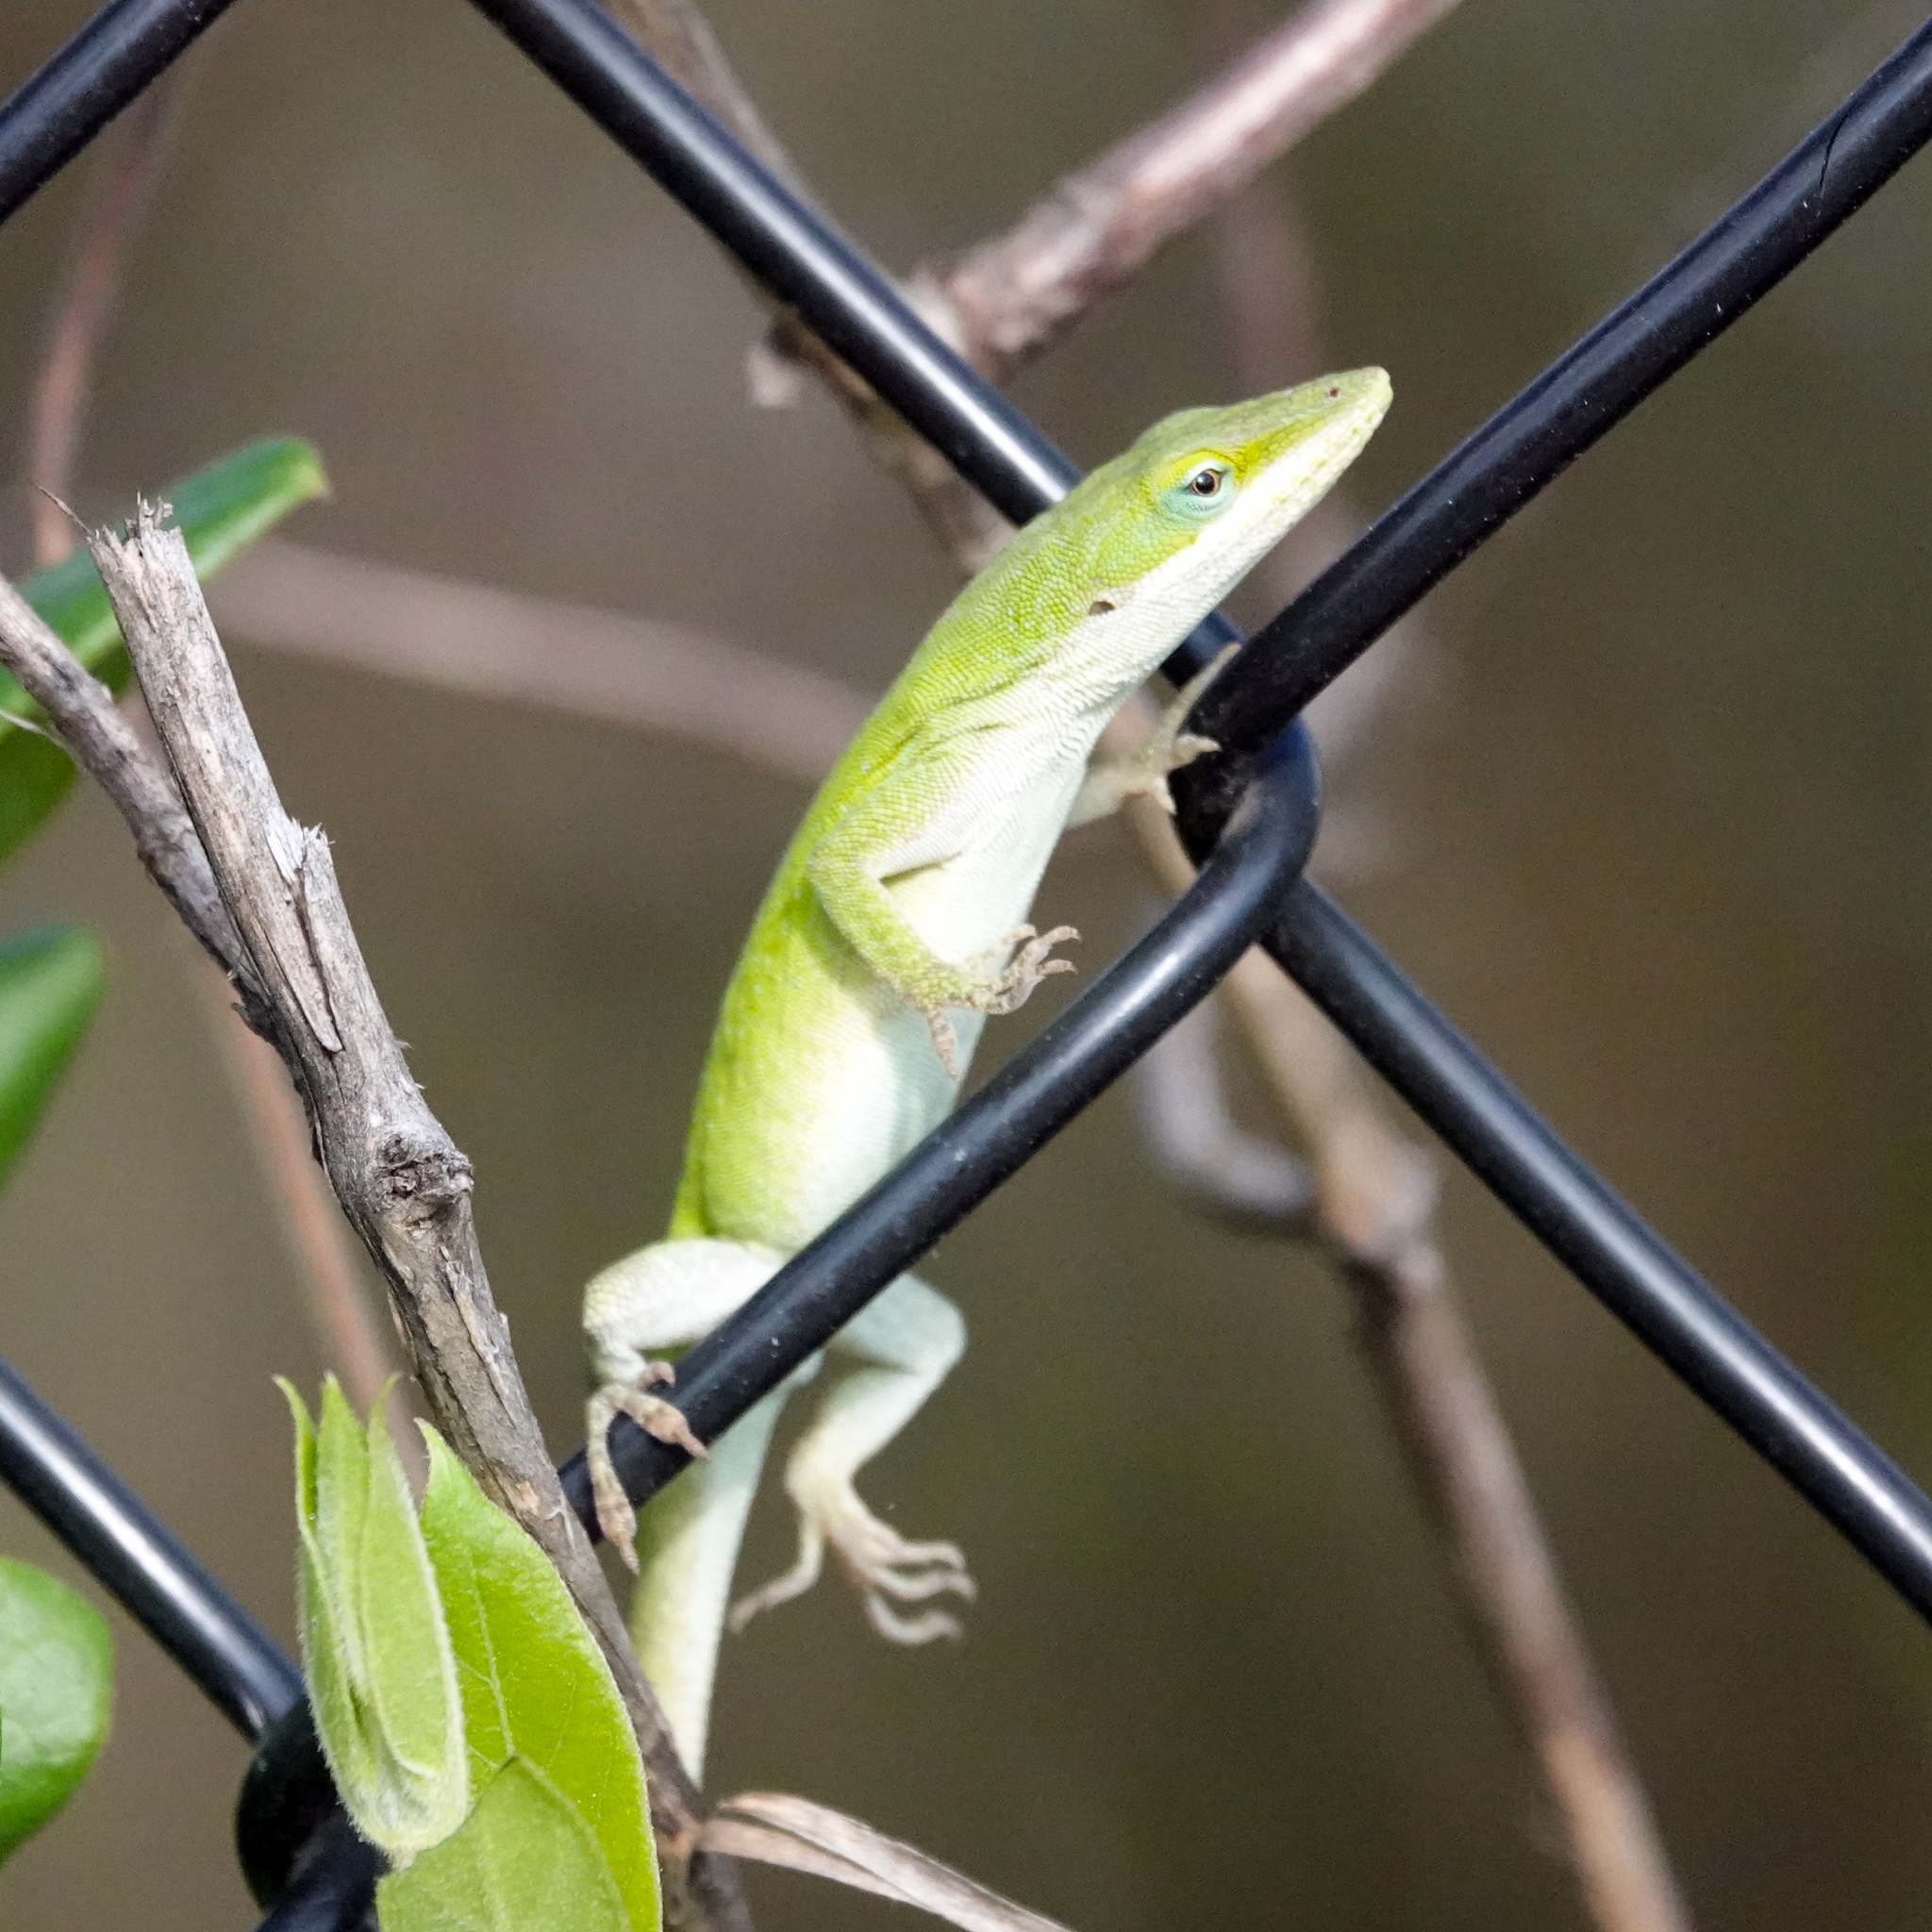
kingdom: Animalia
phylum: Chordata
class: Squamata
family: Dactyloidae
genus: Anolis
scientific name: Anolis carolinensis
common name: Green anole
